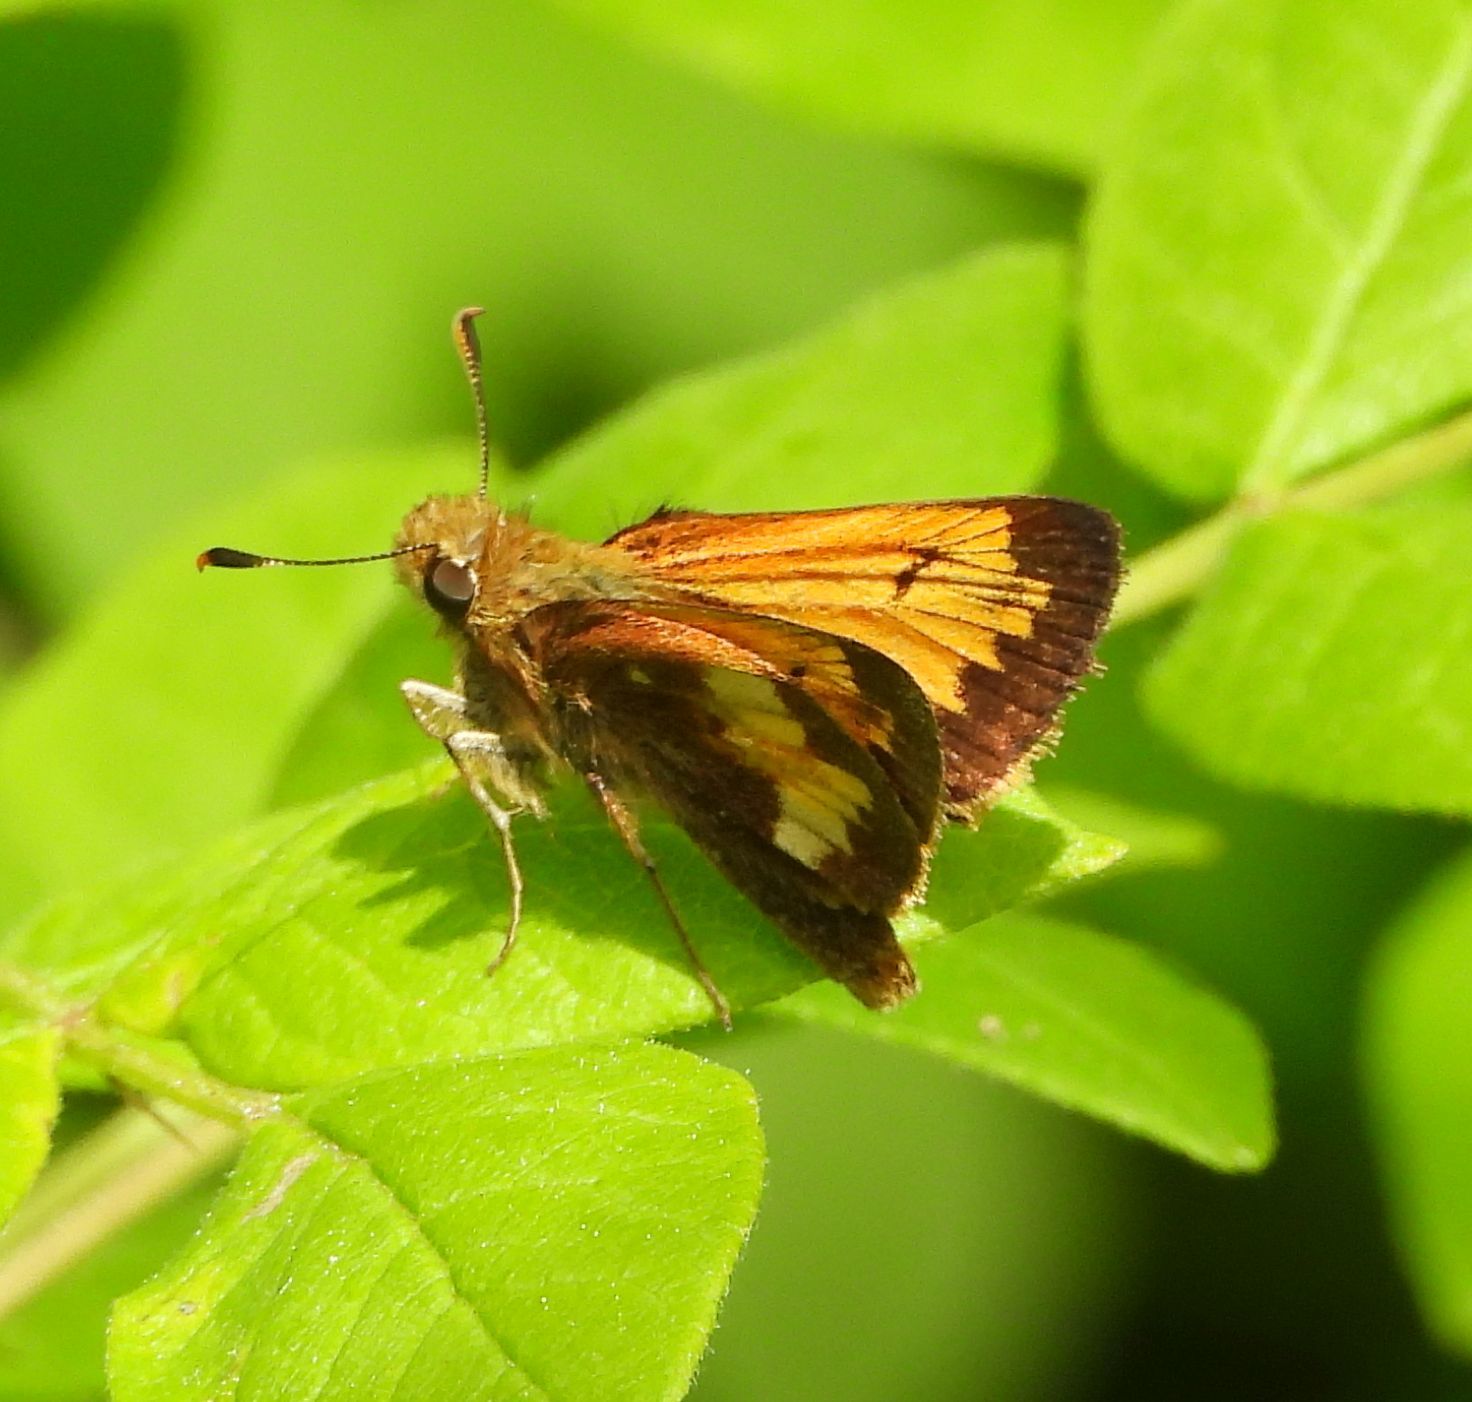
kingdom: Animalia
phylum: Arthropoda
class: Insecta
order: Lepidoptera
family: Hesperiidae
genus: Lon
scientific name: Lon hobomok
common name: Hobomok skipper
